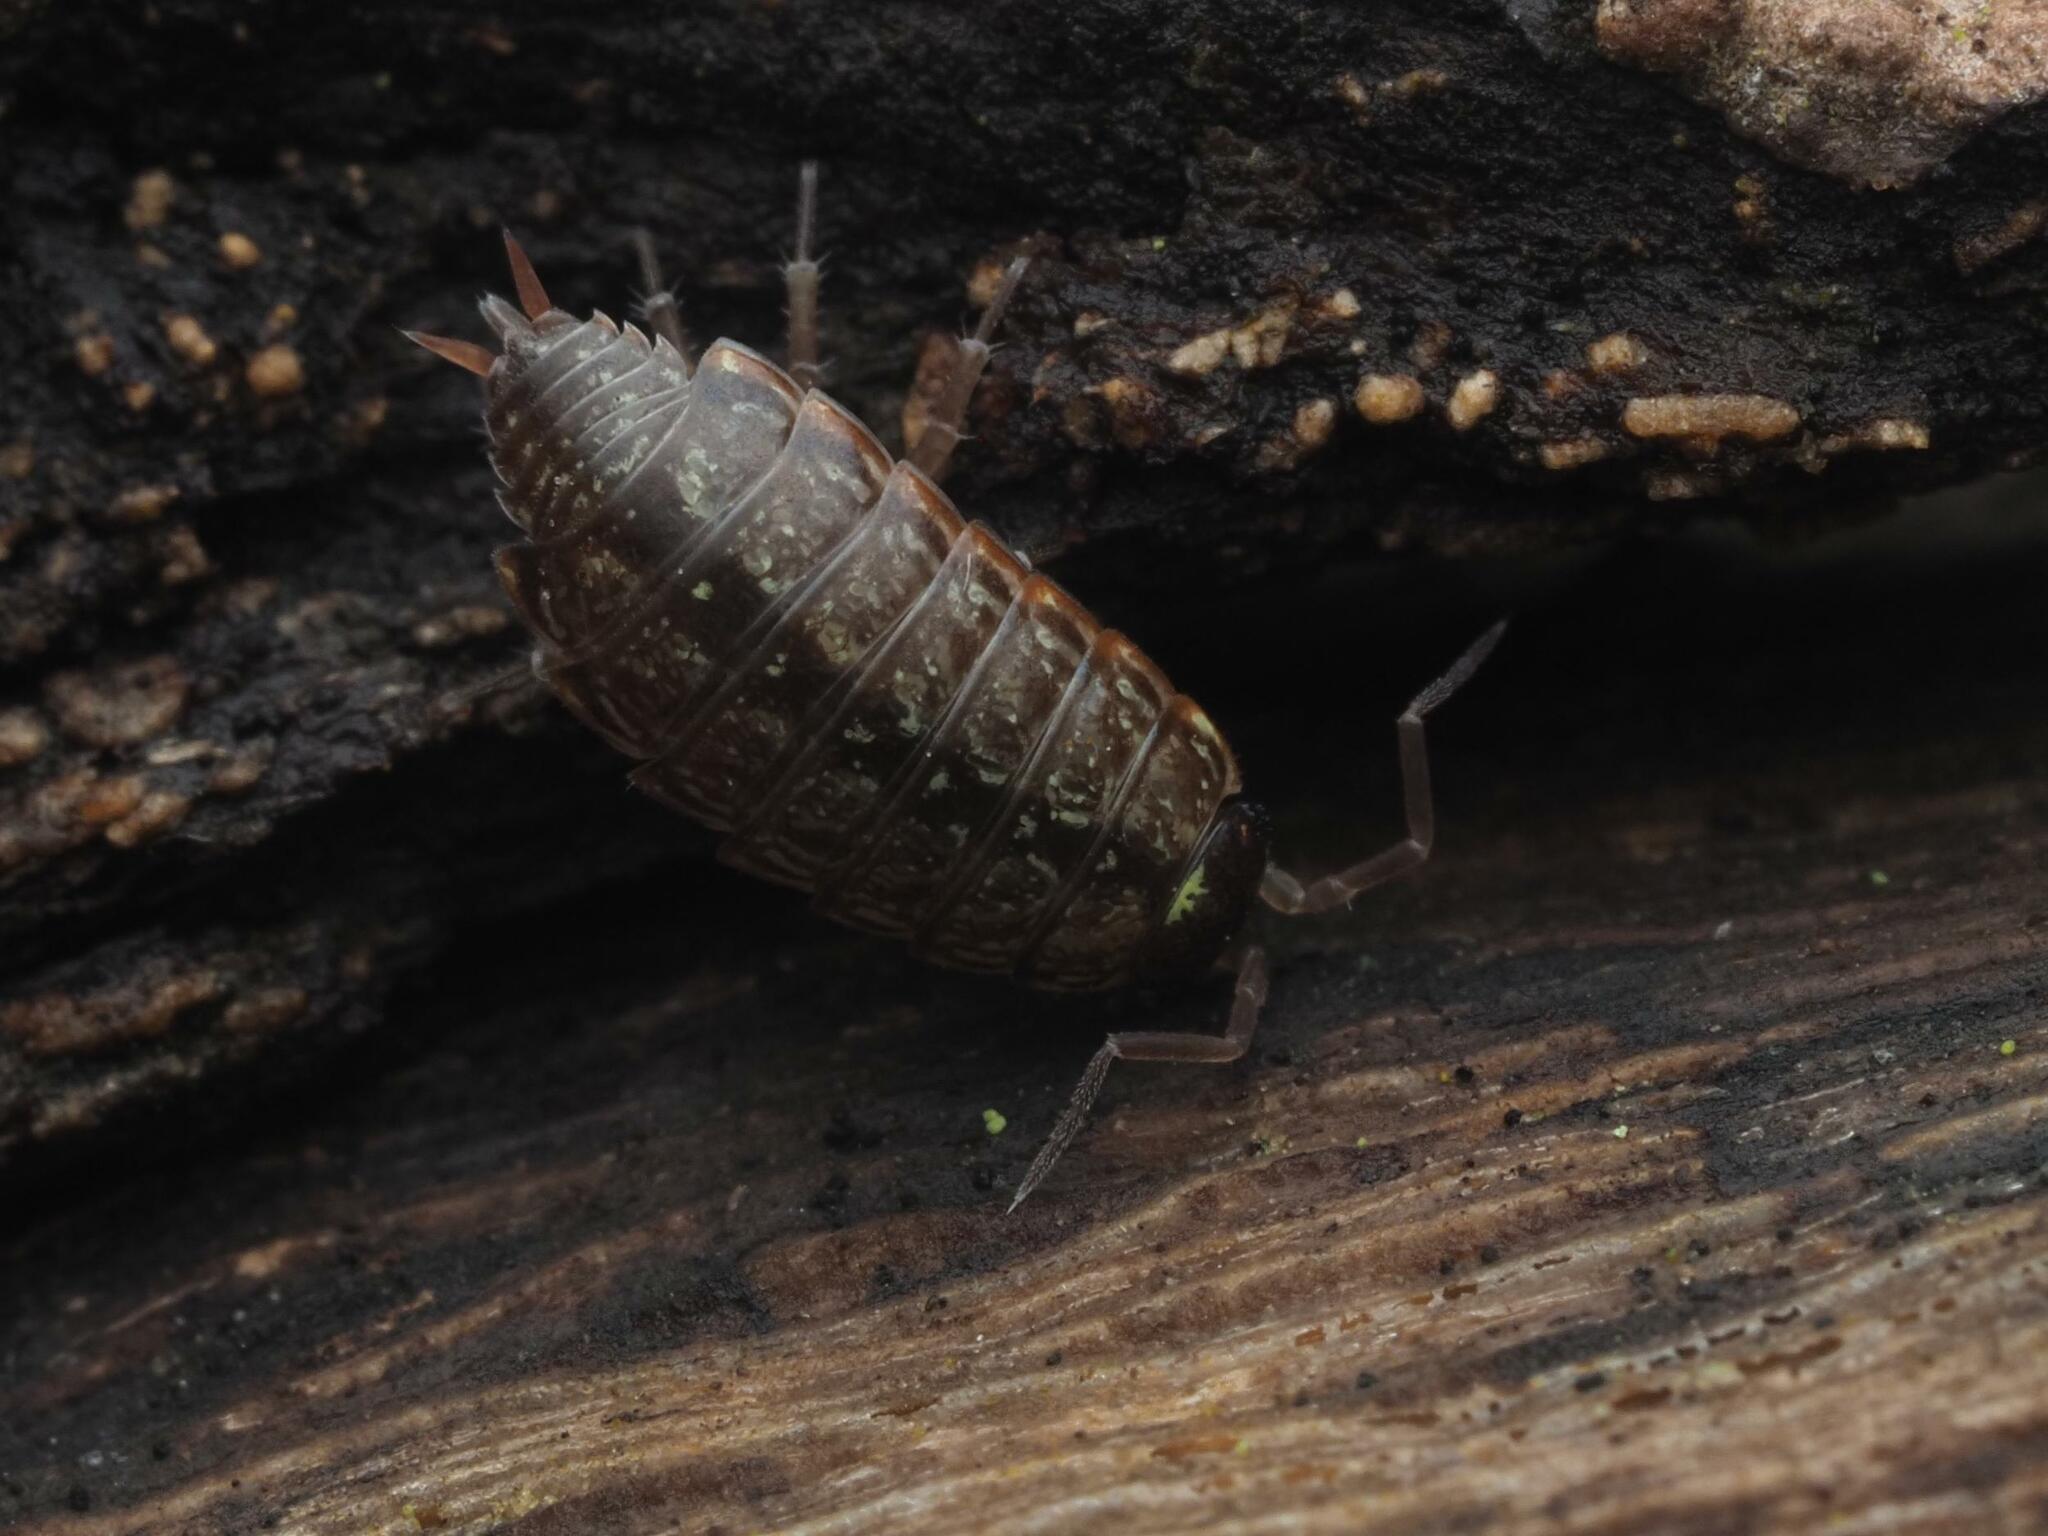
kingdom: Animalia
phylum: Arthropoda
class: Malacostraca
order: Isopoda
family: Philosciidae
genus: Philoscia
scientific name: Philoscia muscorum
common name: Common striped woodlouse
